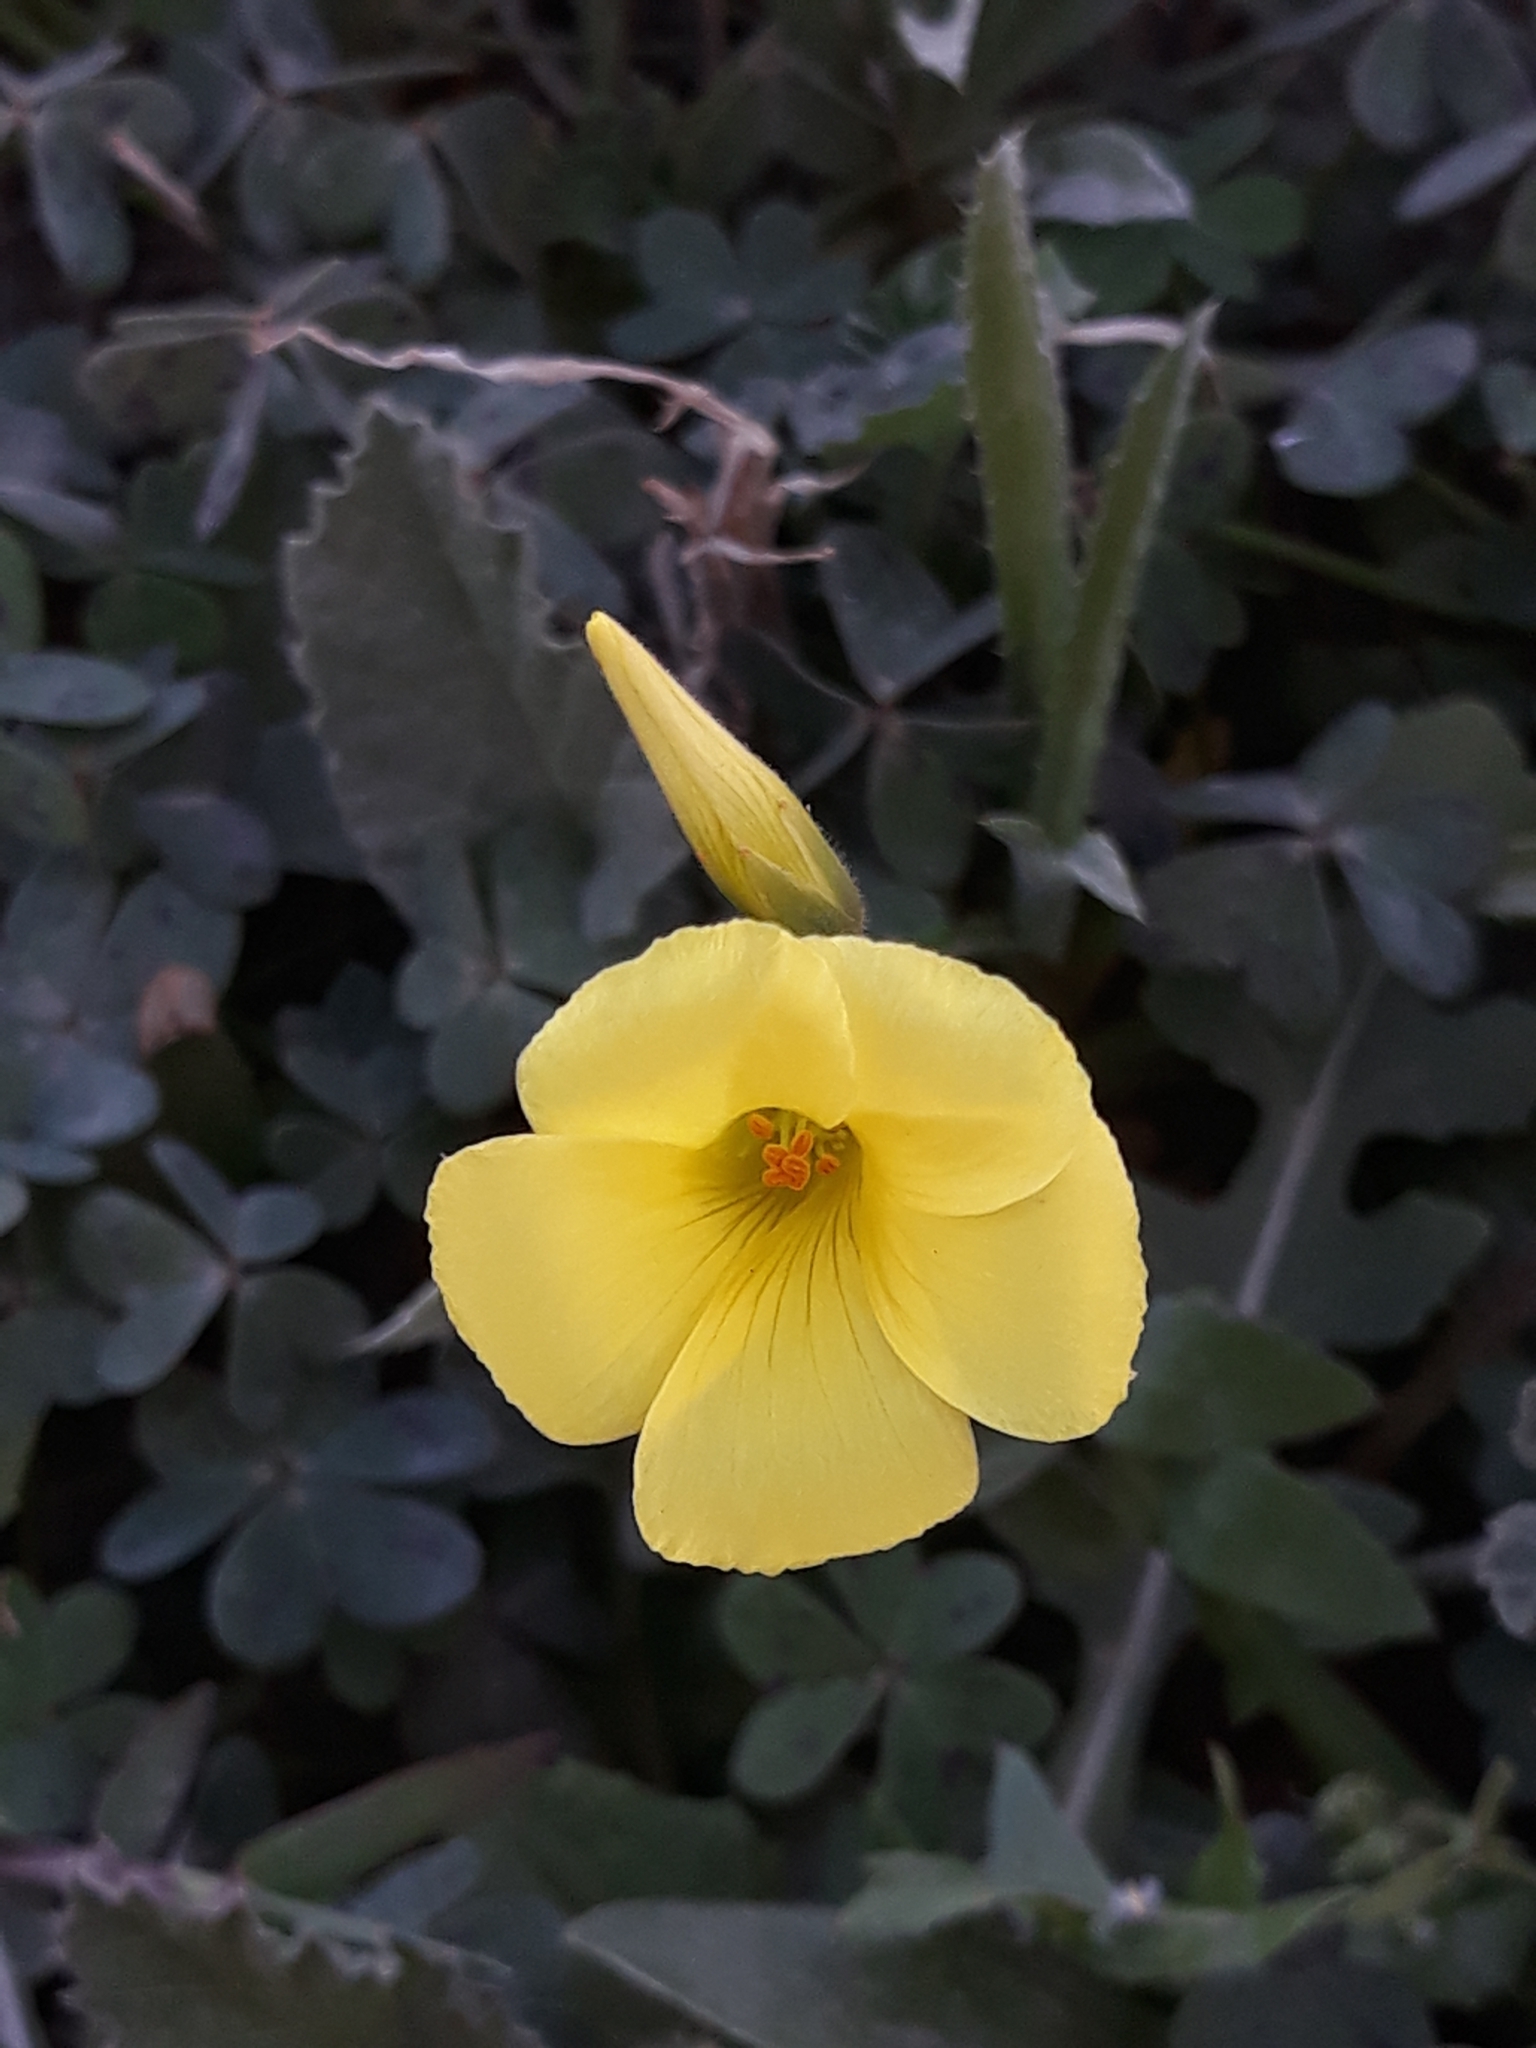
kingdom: Plantae
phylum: Tracheophyta
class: Magnoliopsida
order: Oxalidales
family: Oxalidaceae
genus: Oxalis
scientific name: Oxalis pes-caprae
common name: Bermuda-buttercup
